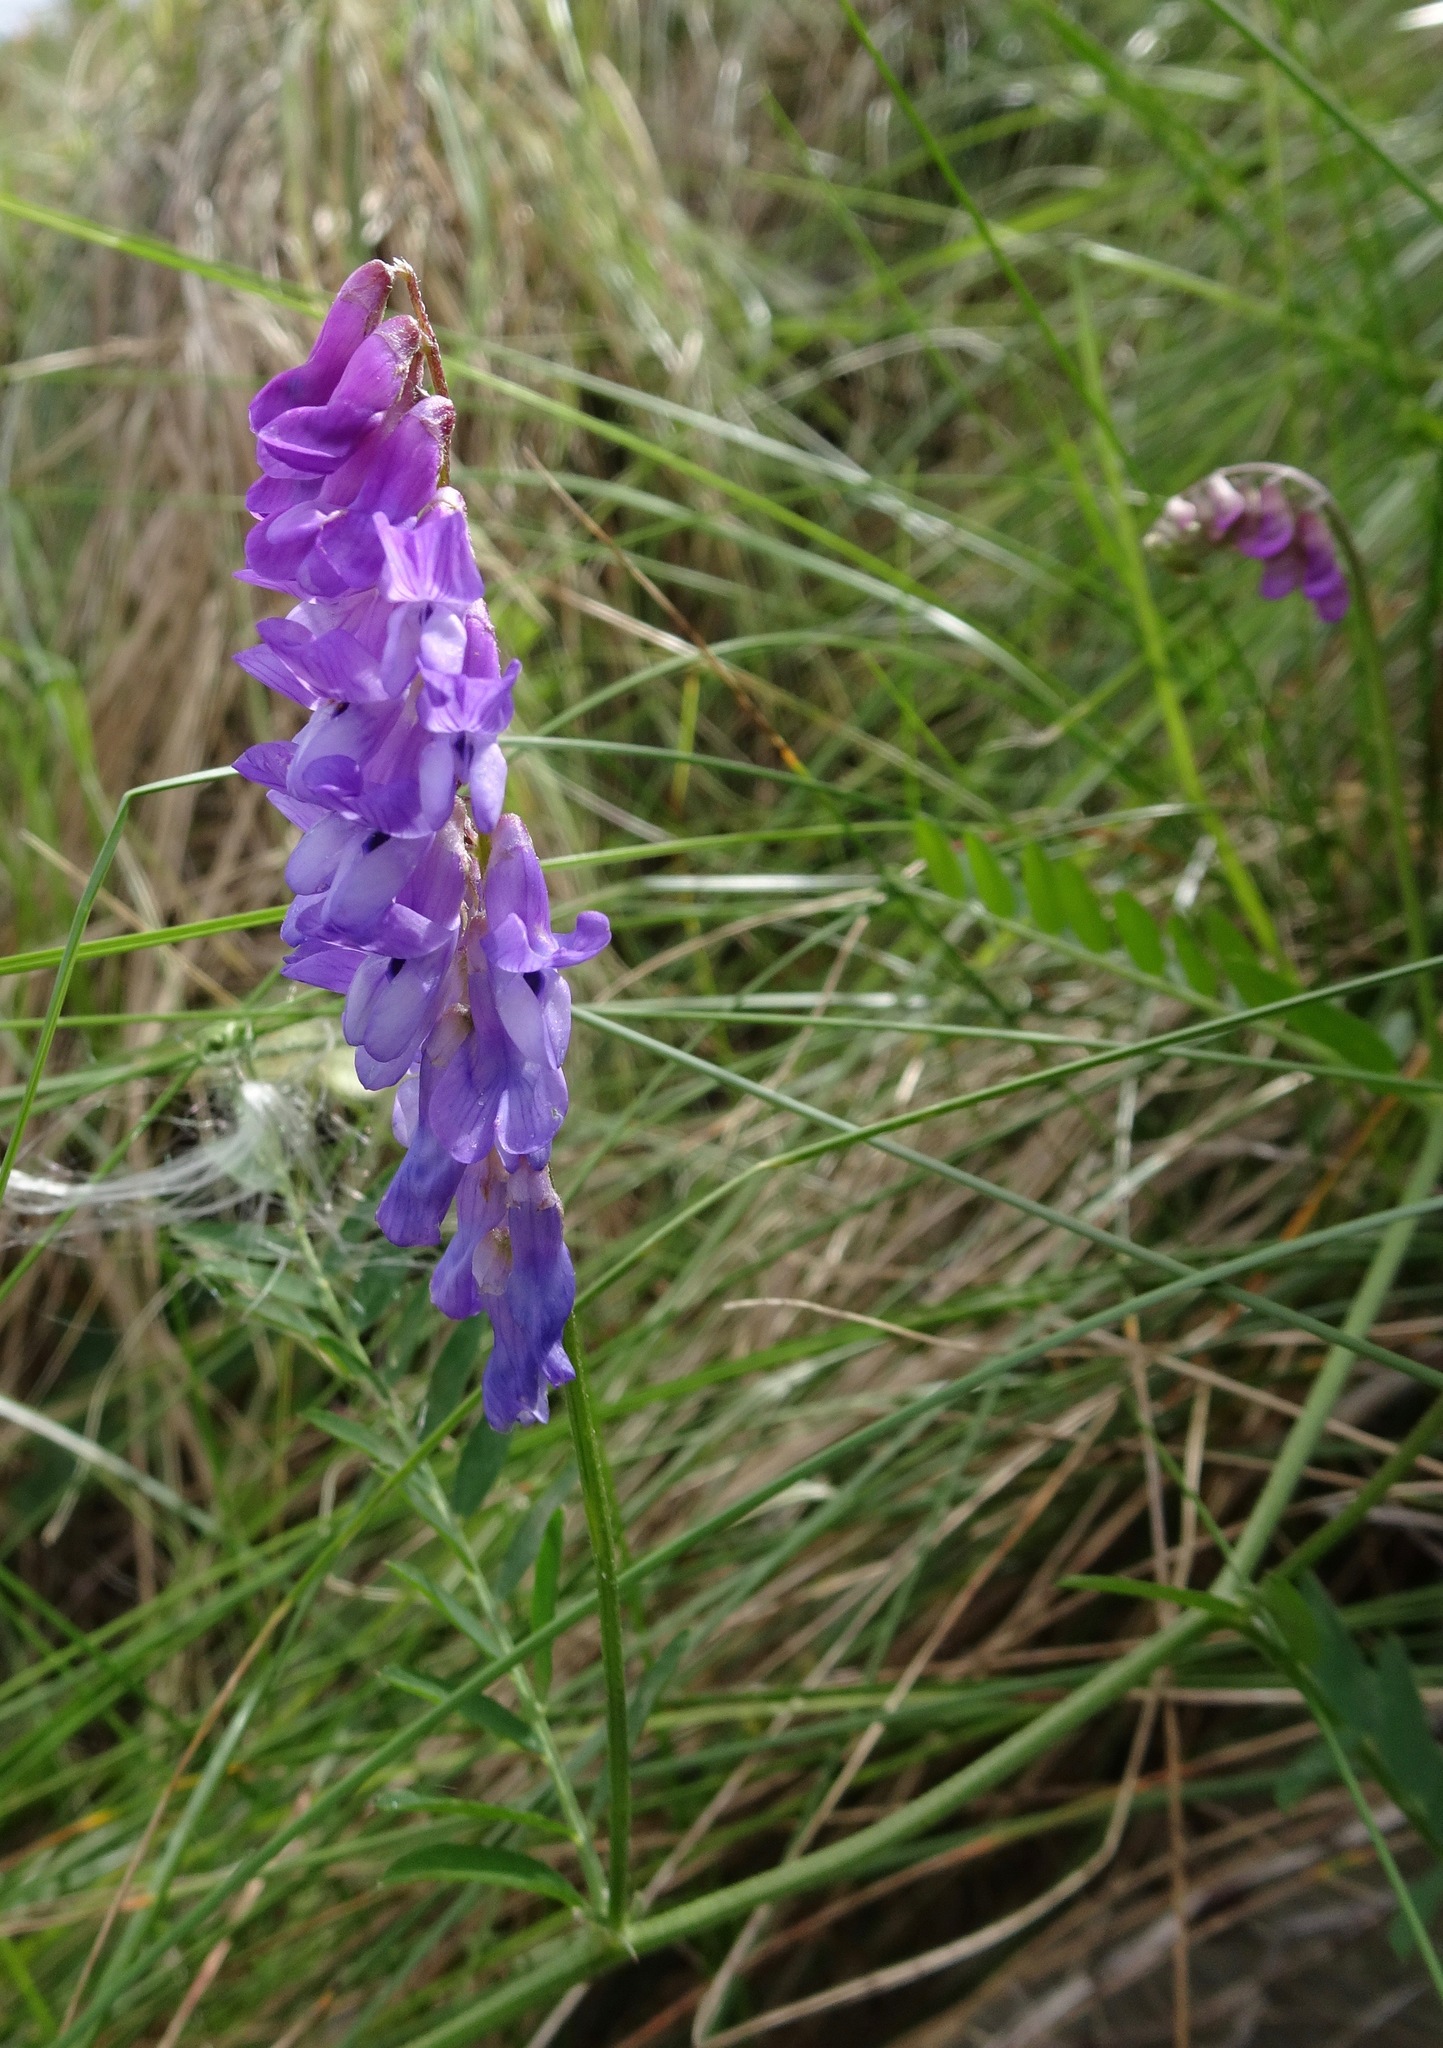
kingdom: Plantae
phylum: Tracheophyta
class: Magnoliopsida
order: Fabales
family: Fabaceae
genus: Vicia
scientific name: Vicia cracca
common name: Bird vetch
